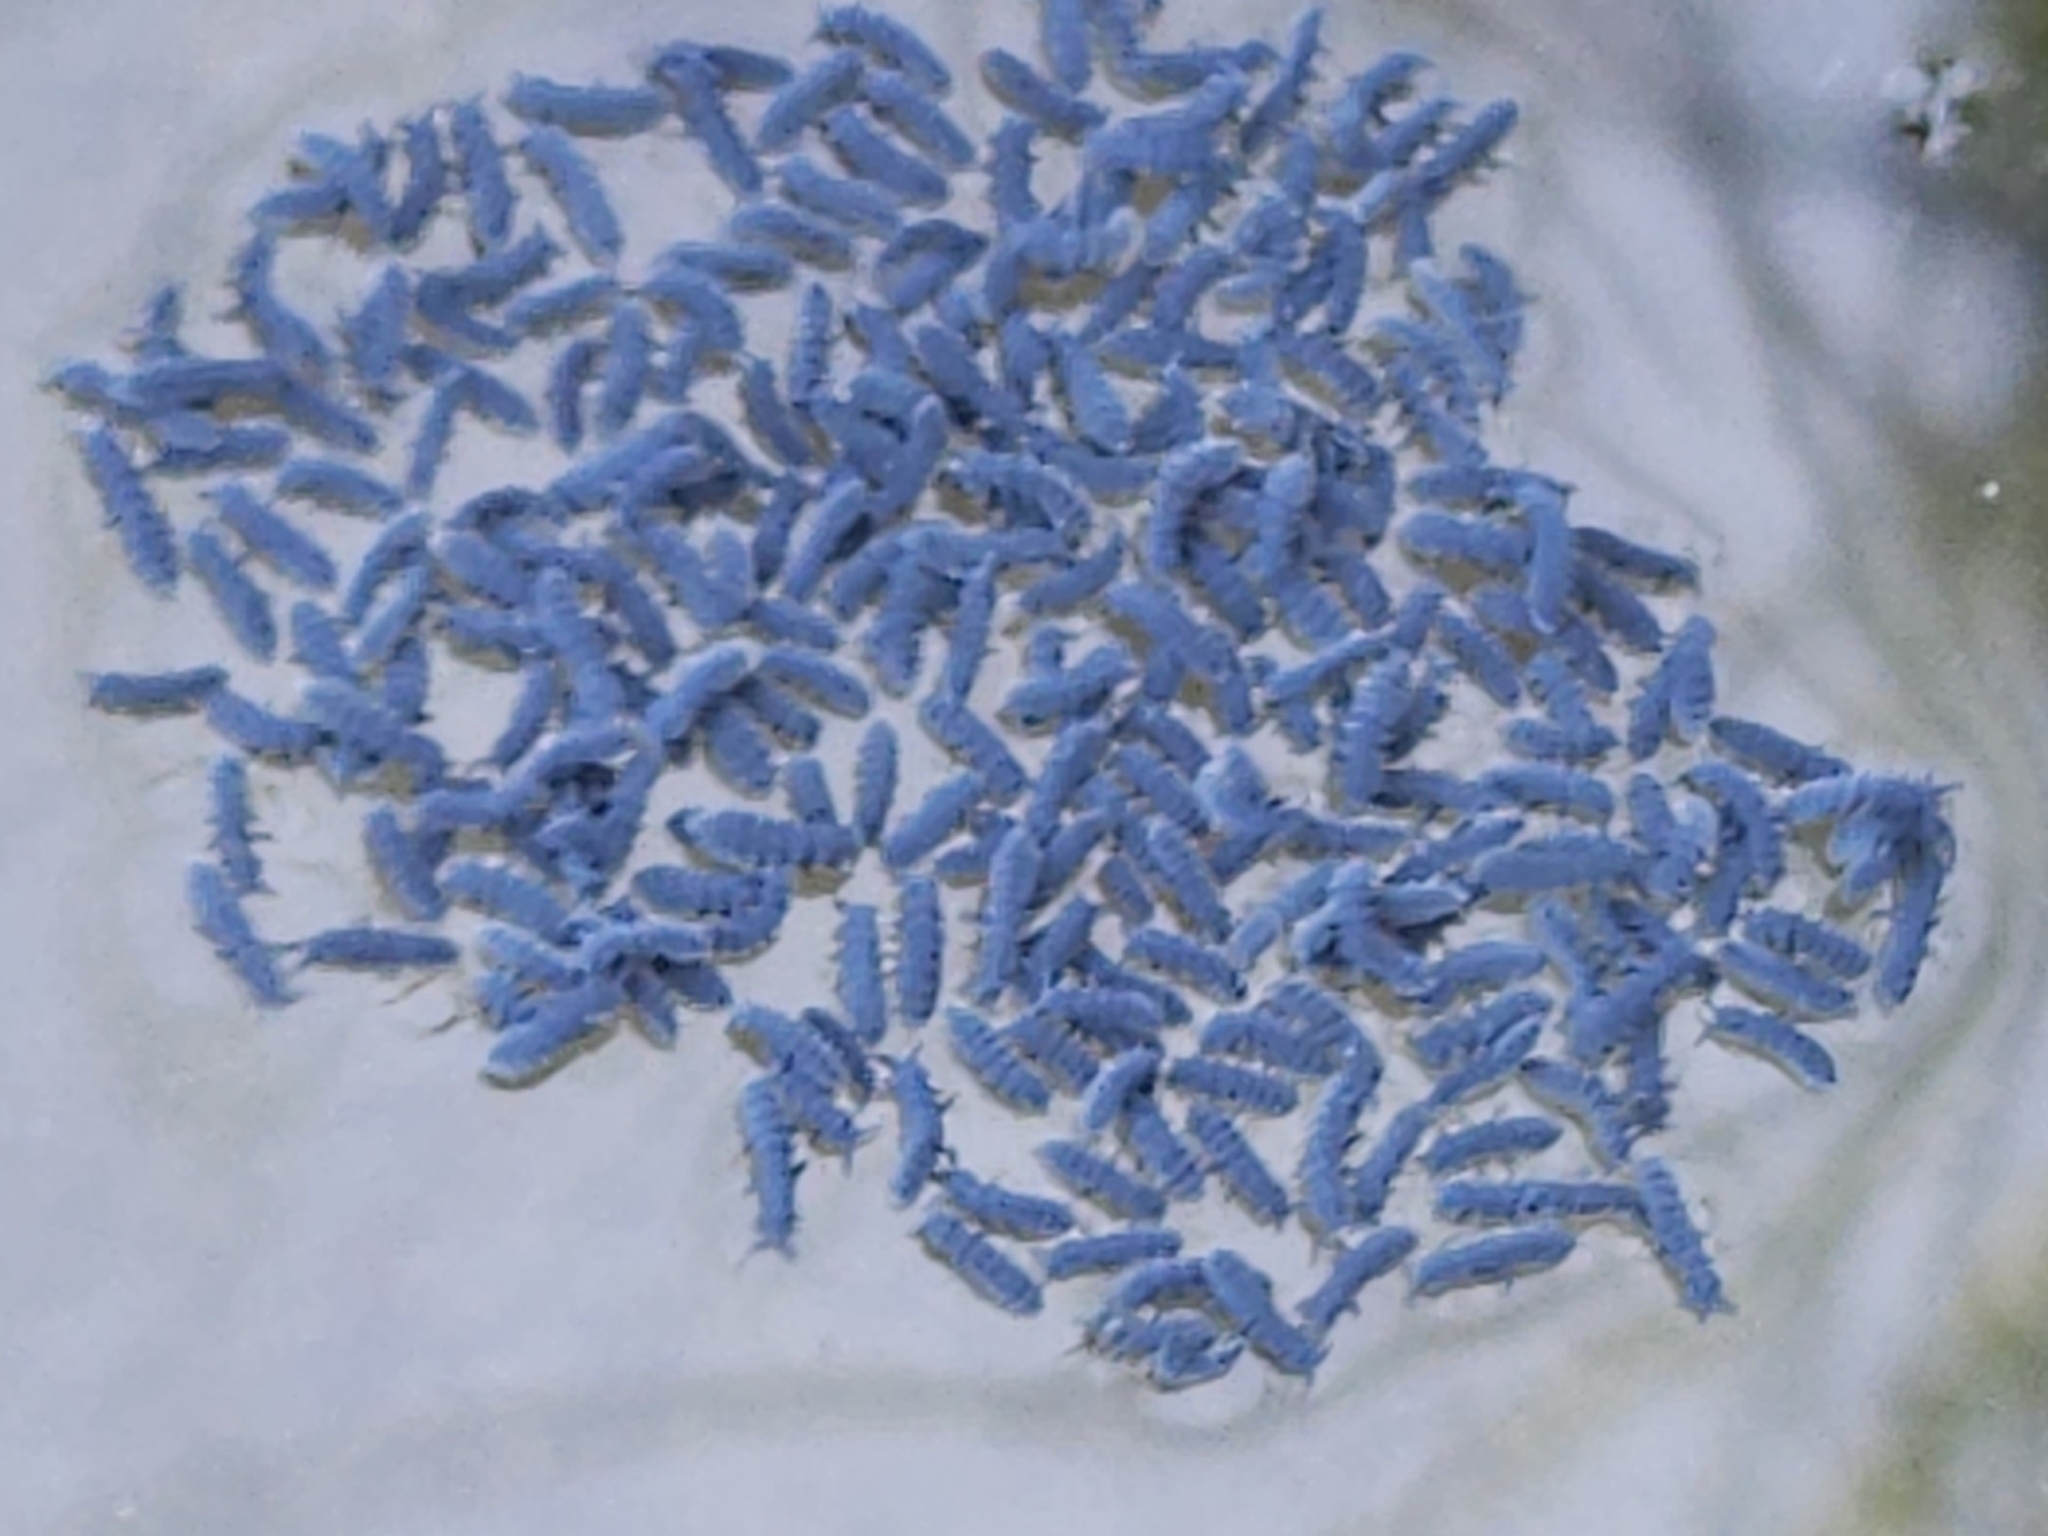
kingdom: Animalia
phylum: Arthropoda
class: Collembola
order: Poduromorpha
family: Neanuridae
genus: Anurida
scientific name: Anurida maritima
